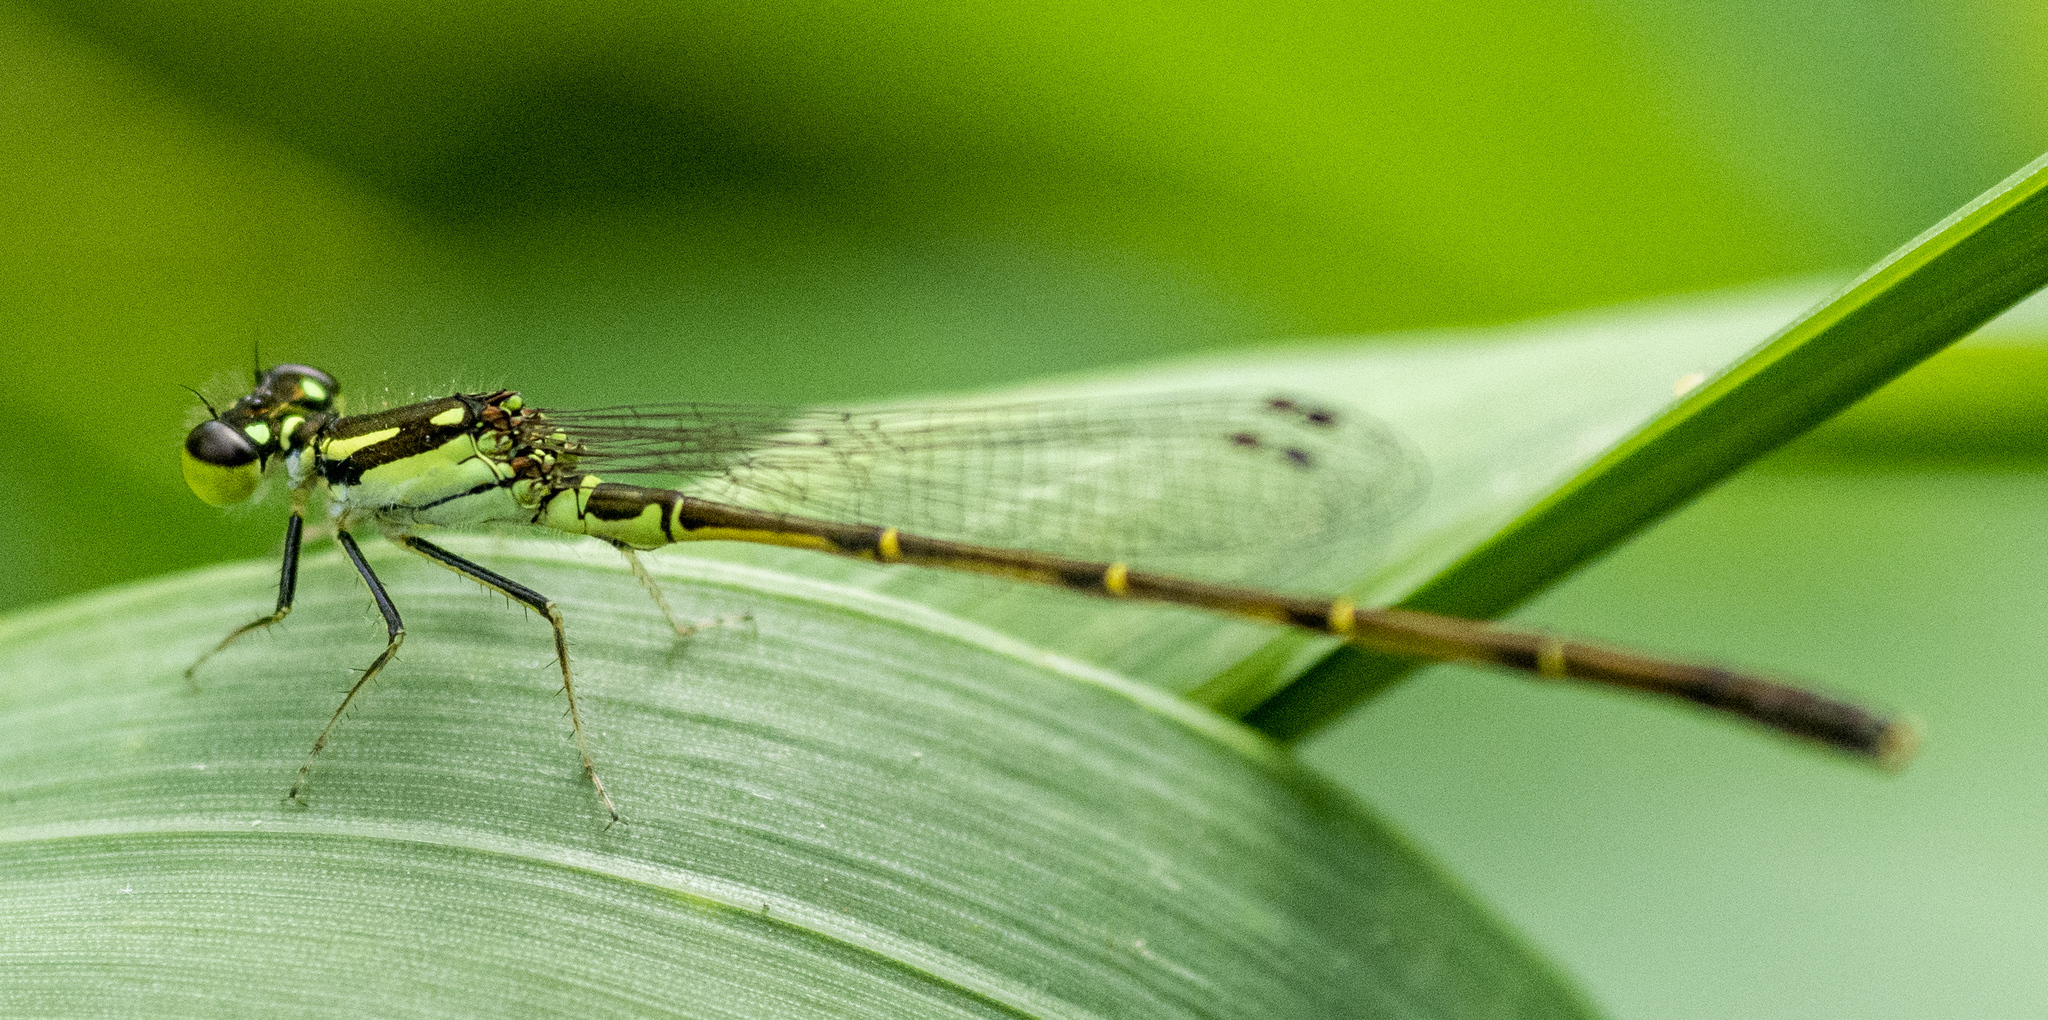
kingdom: Animalia
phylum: Arthropoda
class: Insecta
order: Odonata
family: Coenagrionidae
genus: Ischnura
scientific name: Ischnura posita
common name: Fragile forktail
